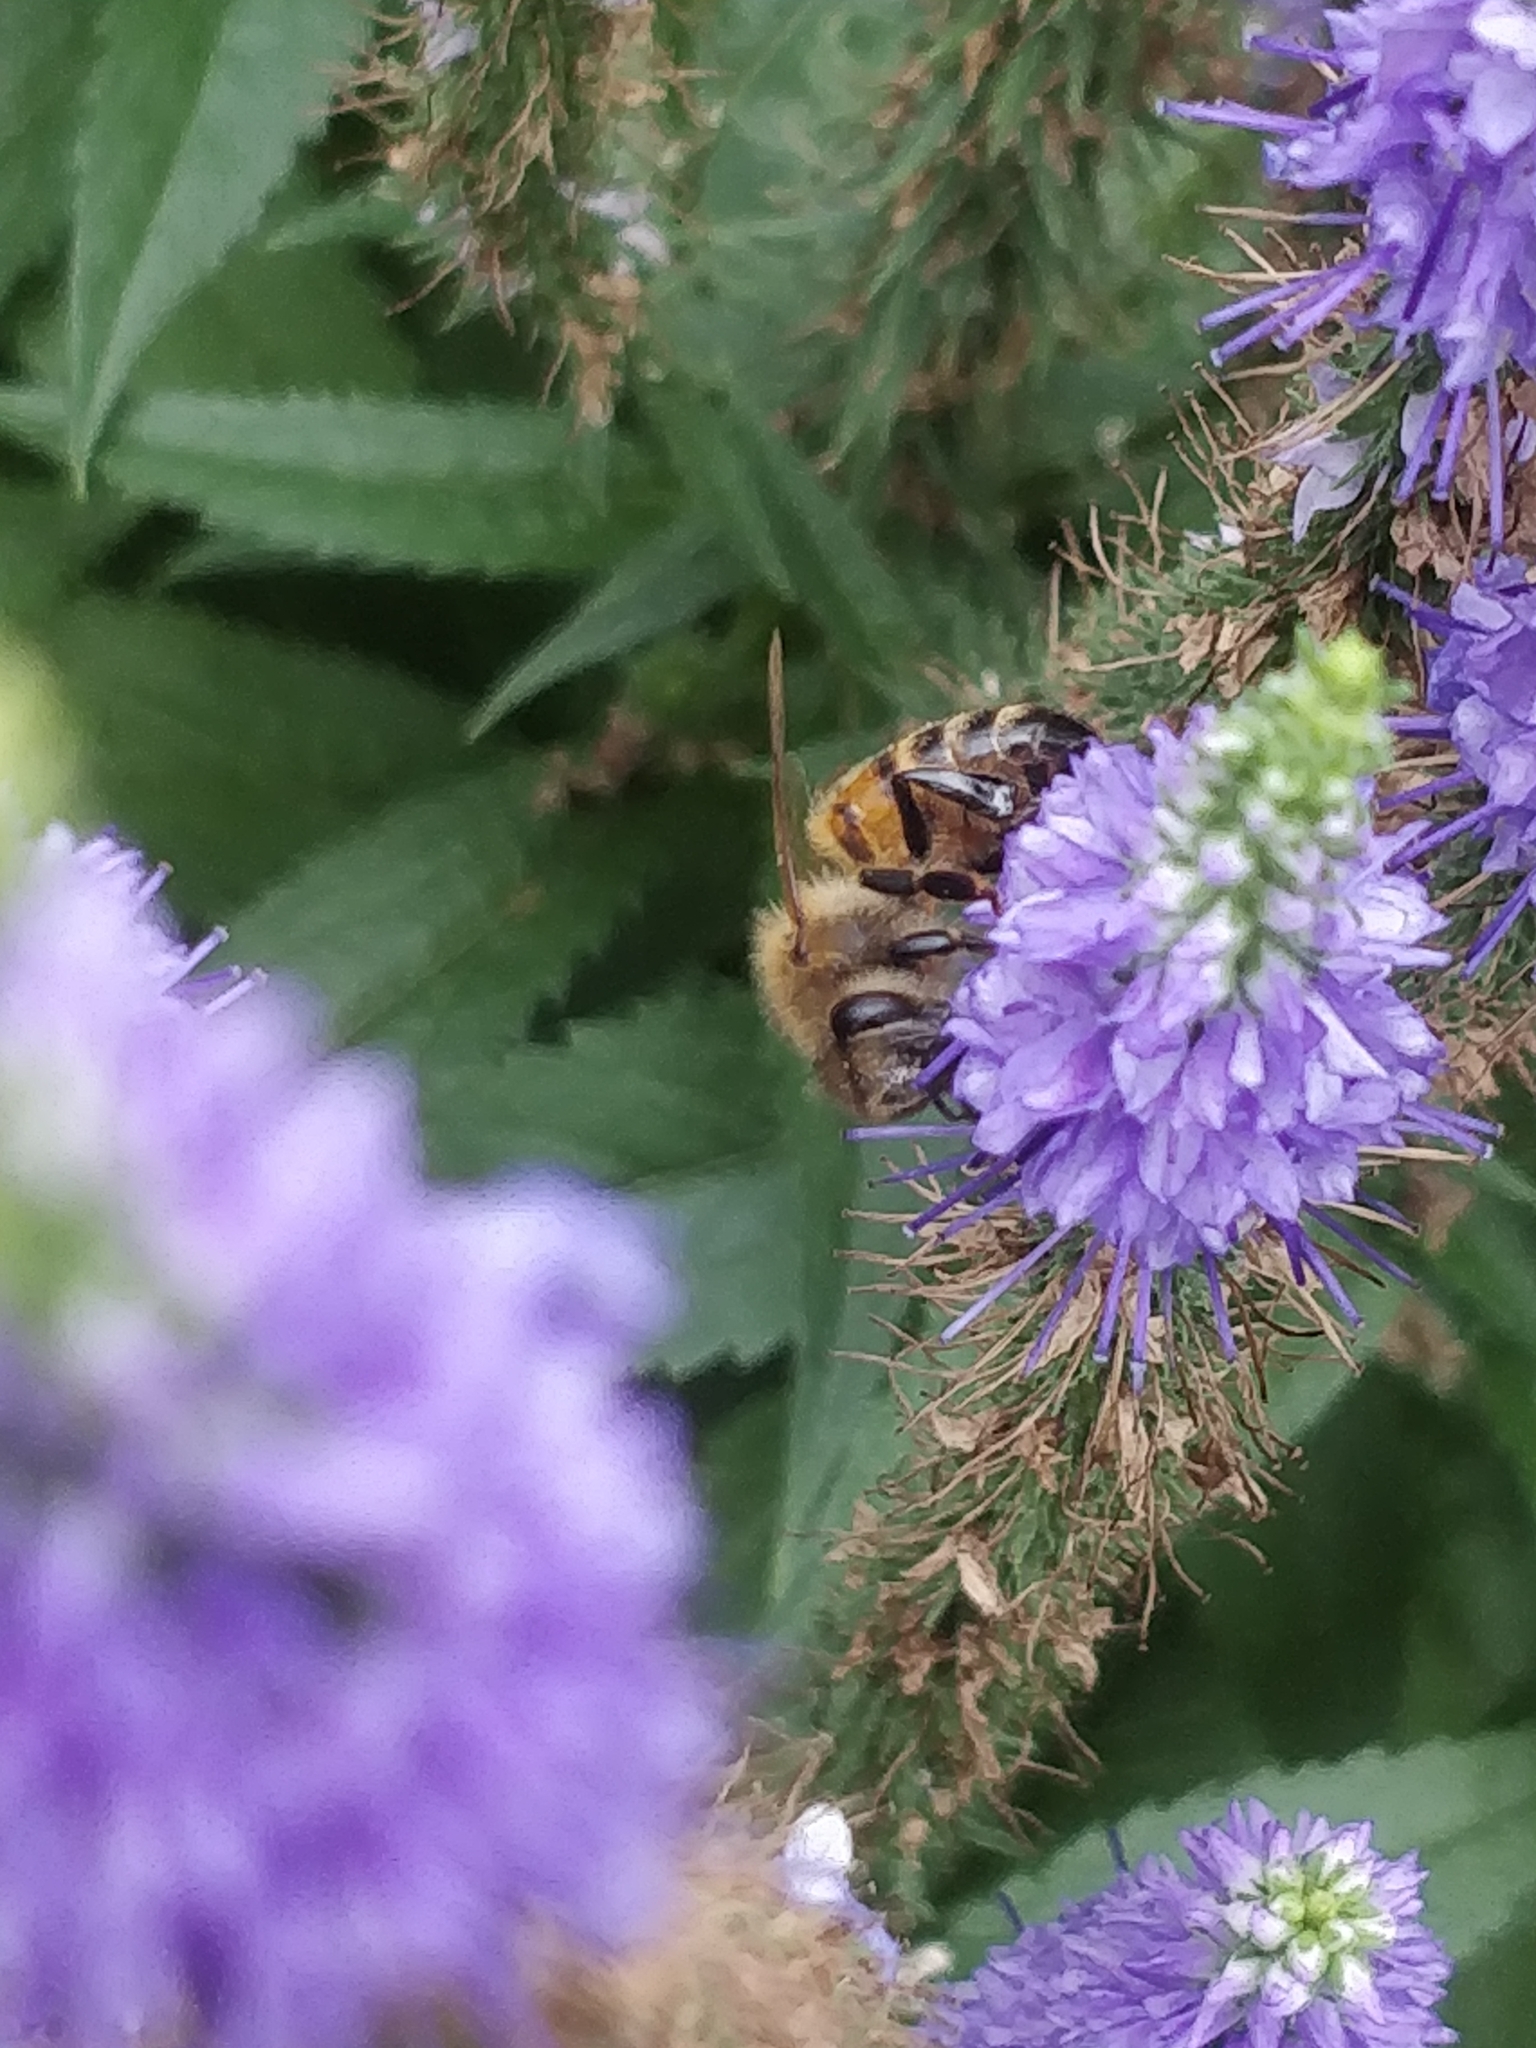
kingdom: Animalia
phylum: Arthropoda
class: Insecta
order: Hymenoptera
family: Apidae
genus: Apis
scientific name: Apis mellifera
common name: Honey bee
